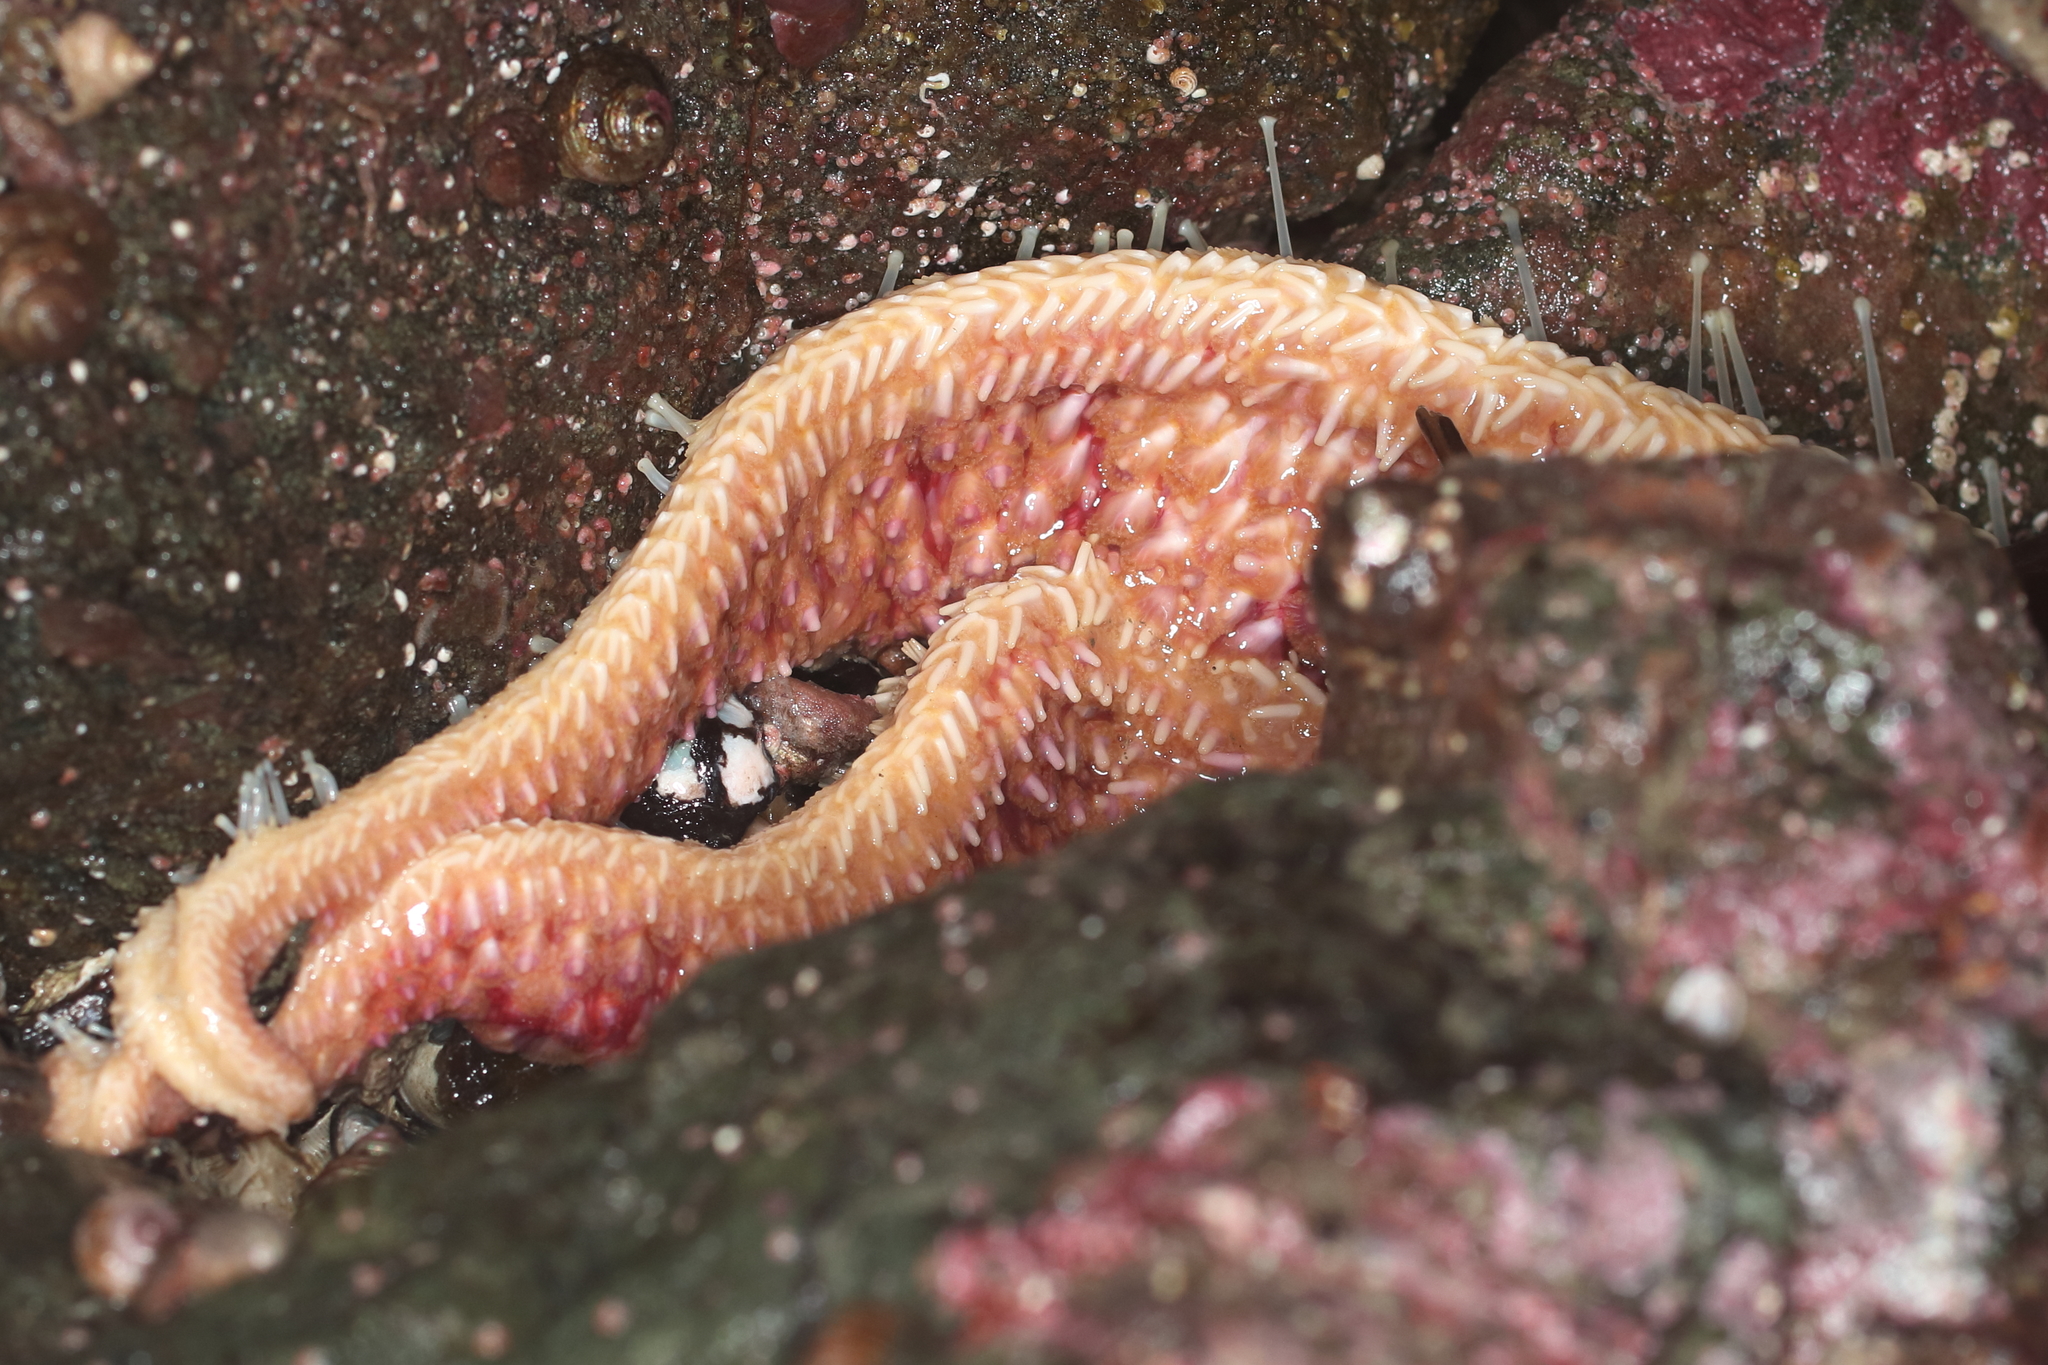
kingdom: Animalia
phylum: Echinodermata
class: Asteroidea
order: Forcipulatida
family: Asteriidae
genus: Orthasterias
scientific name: Orthasterias koehleri
